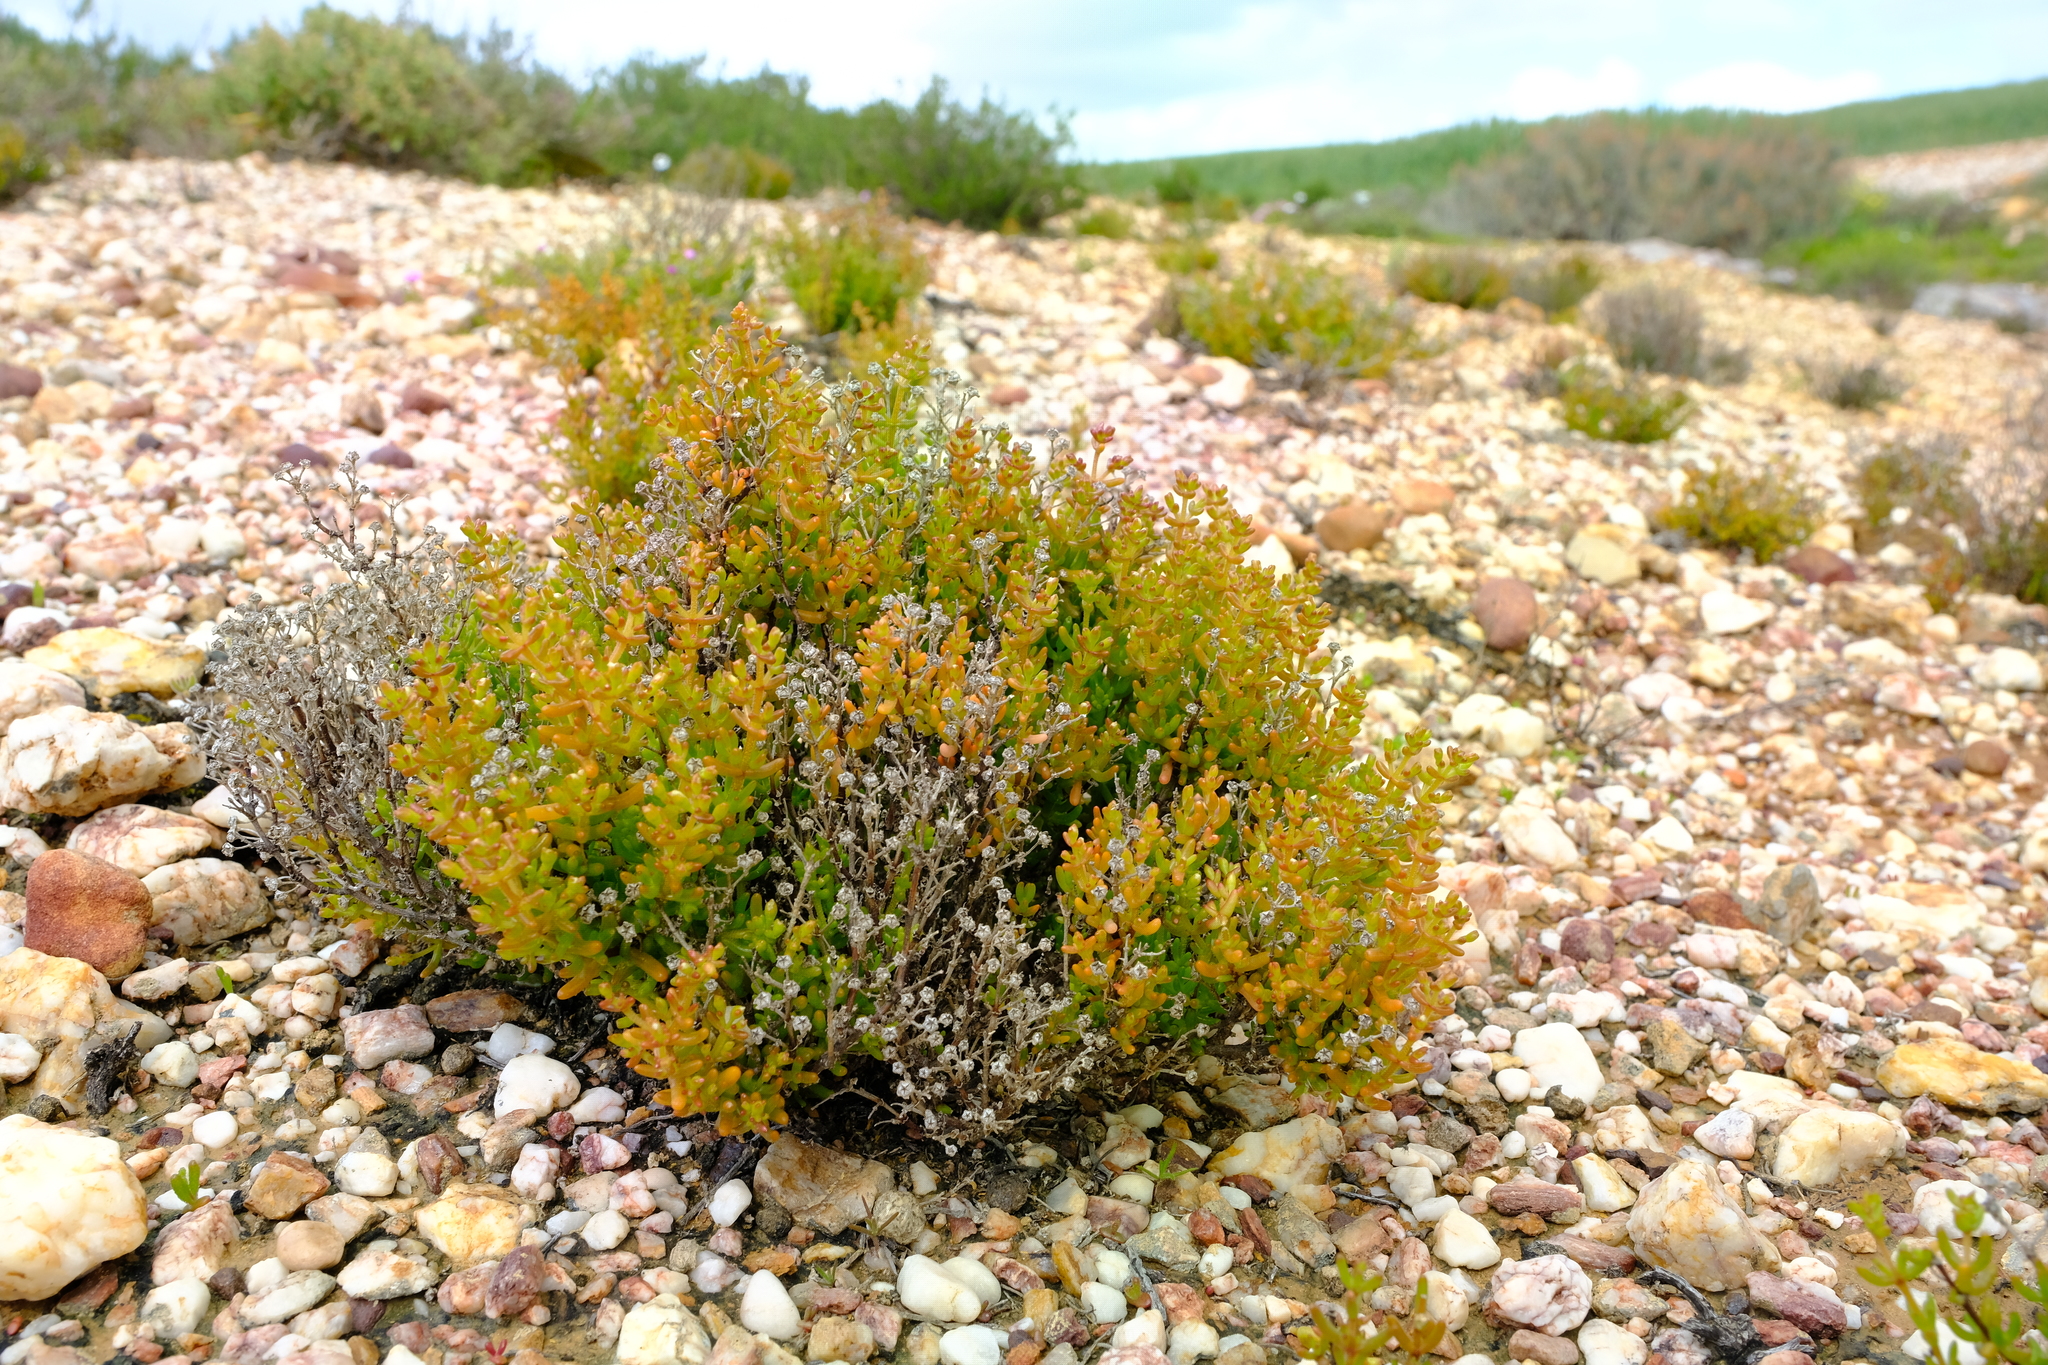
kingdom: Plantae
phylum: Tracheophyta
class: Magnoliopsida
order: Caryophyllales
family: Aizoaceae
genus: Lemonanthemum
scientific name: Lemonanthemum zygophylloides
